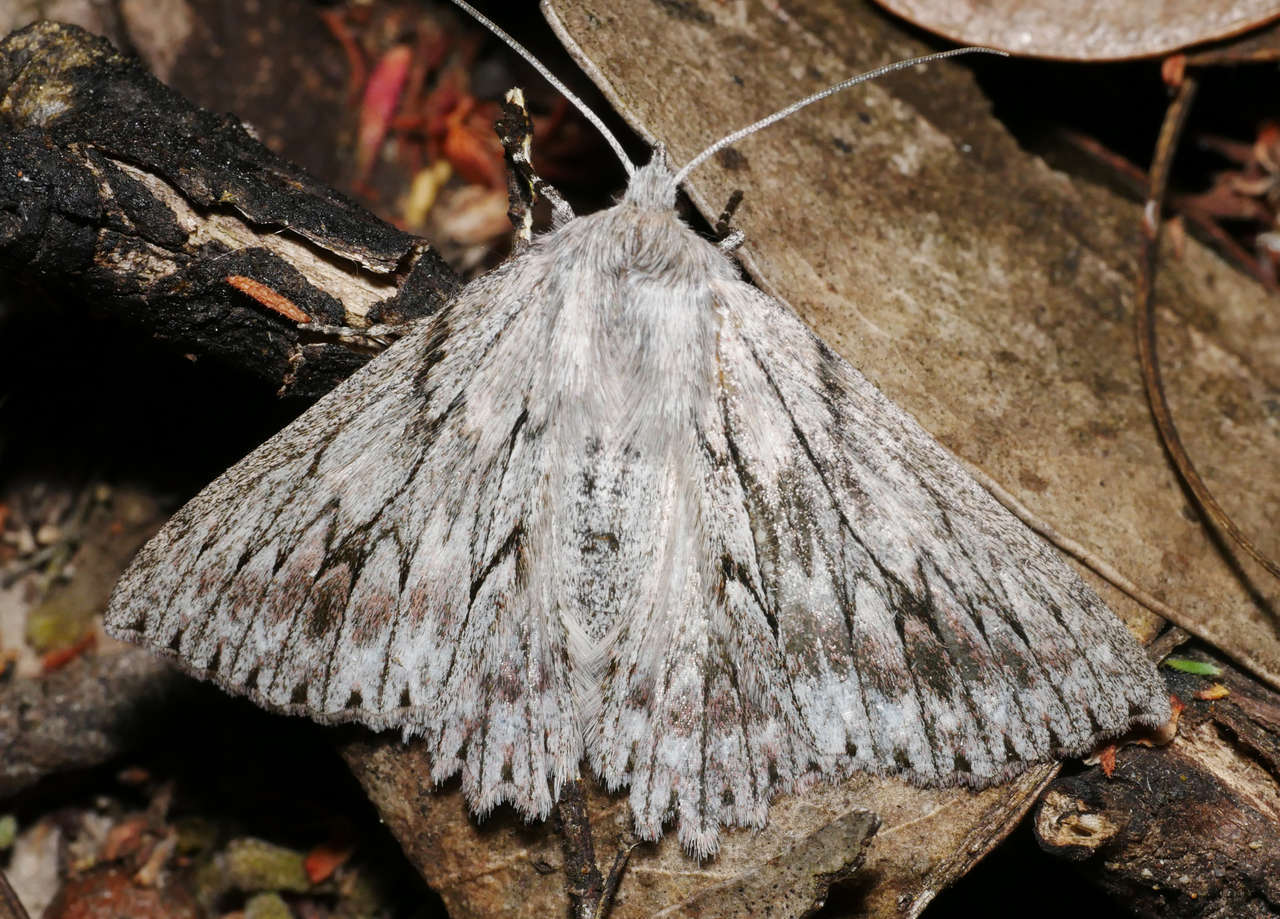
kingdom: Animalia
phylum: Arthropoda
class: Insecta
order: Lepidoptera
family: Geometridae
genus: Cyneoterpna
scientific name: Cyneoterpna wilsoni
